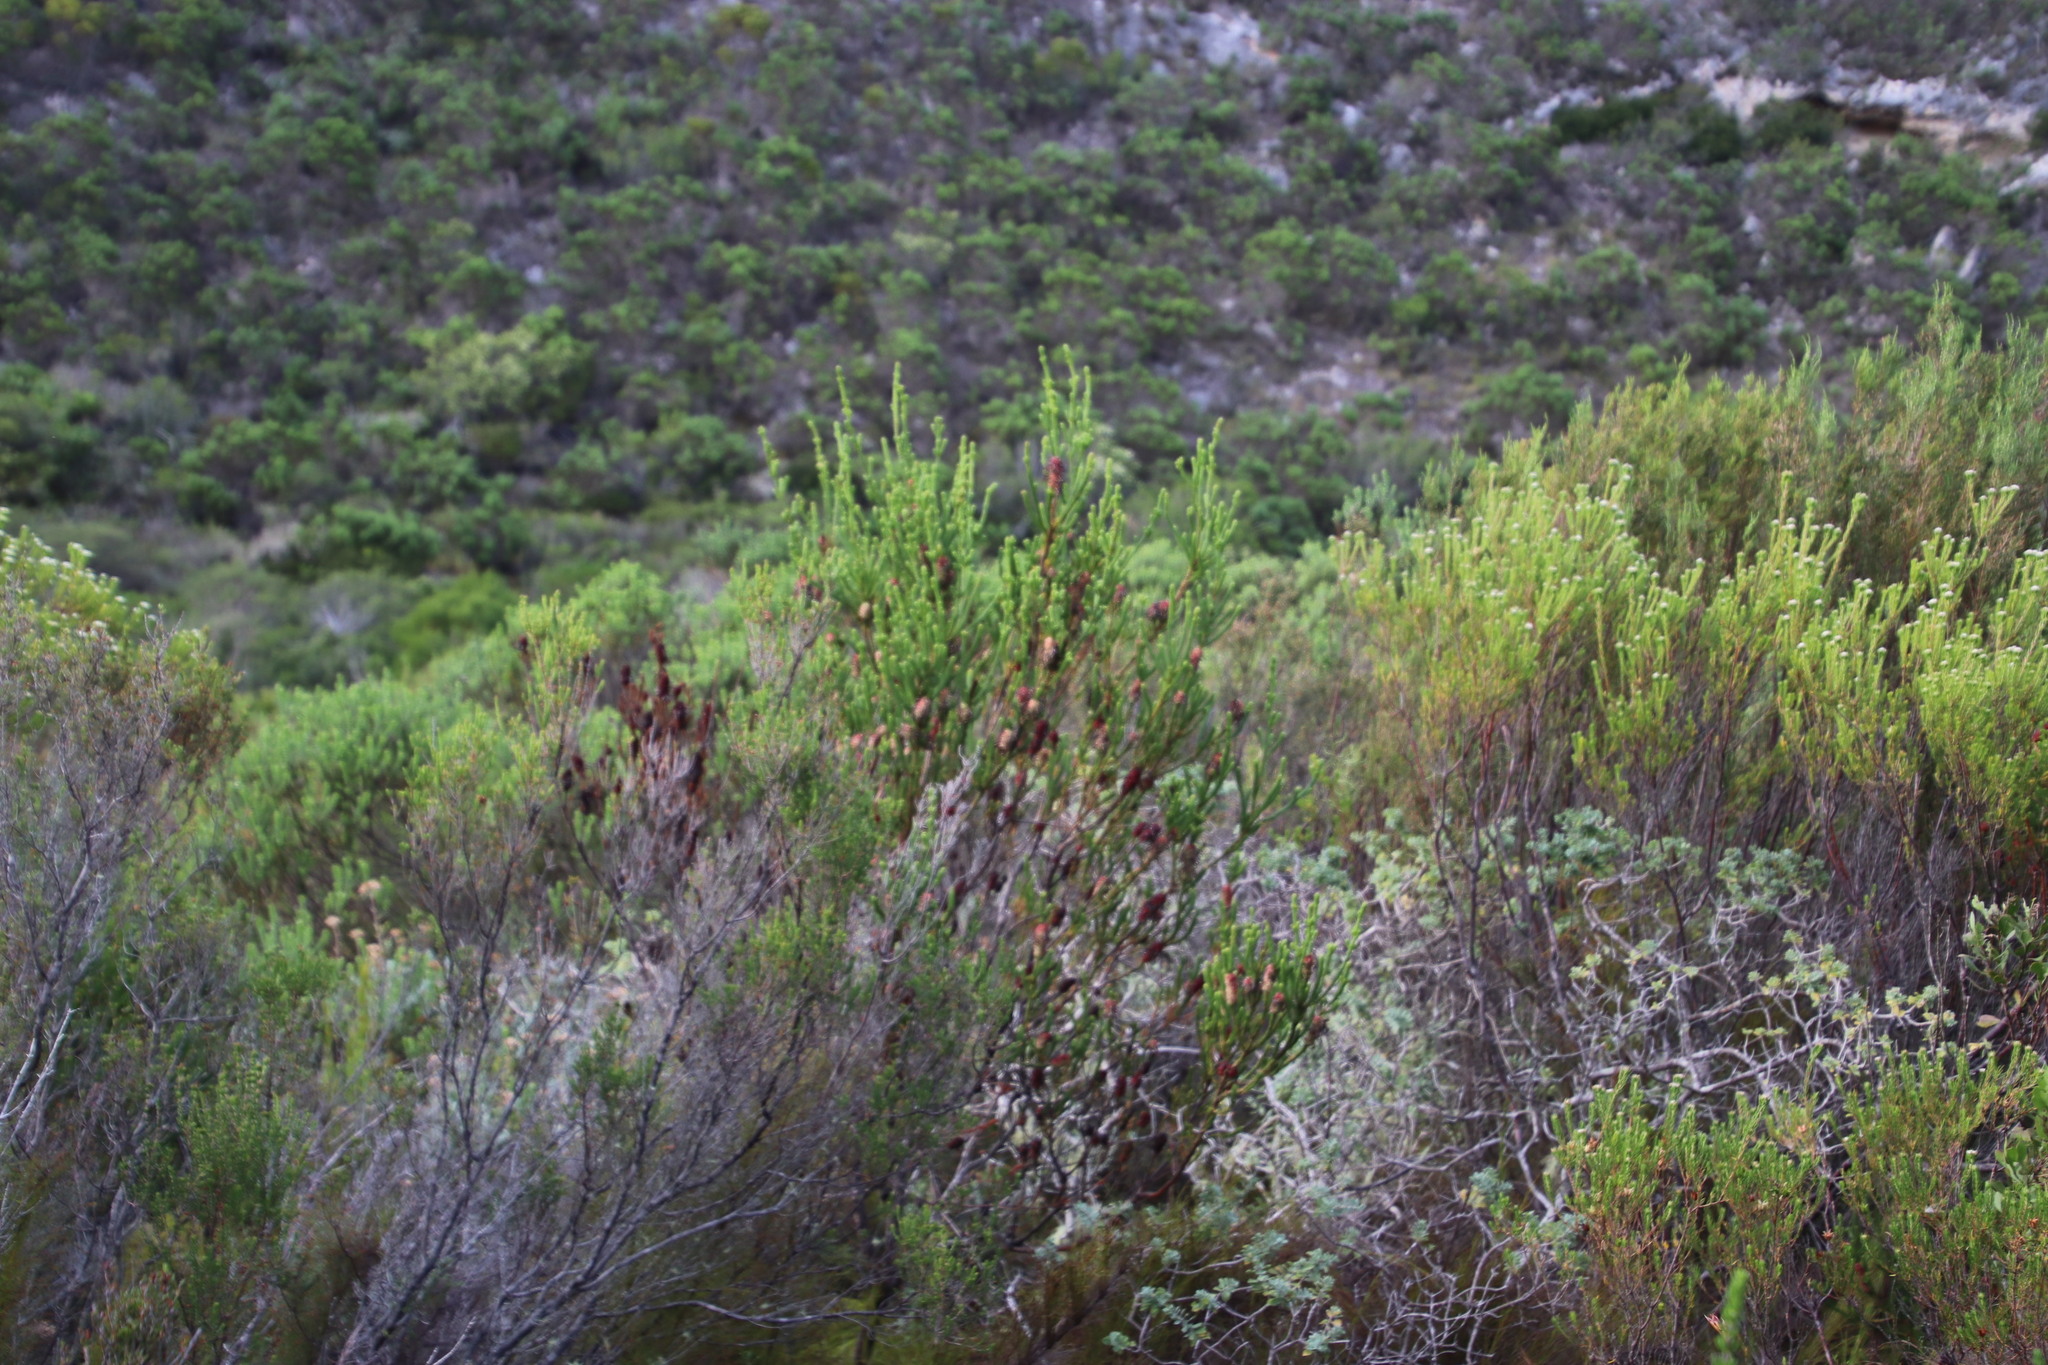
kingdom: Plantae
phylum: Tracheophyta
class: Magnoliopsida
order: Ericales
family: Ericaceae
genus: Erica
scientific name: Erica sessiliflora
